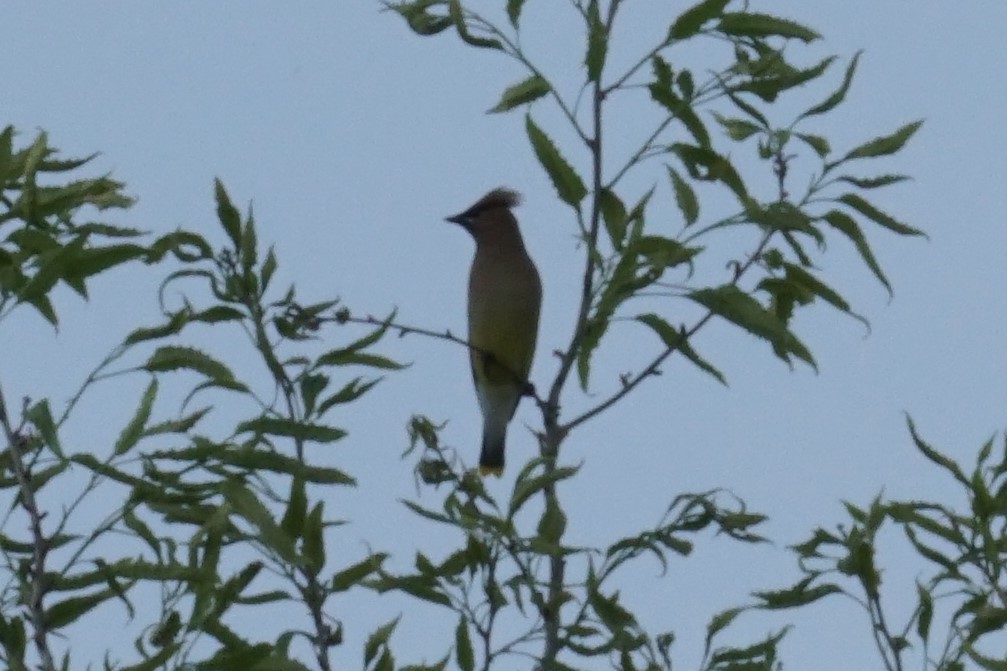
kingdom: Animalia
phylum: Chordata
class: Aves
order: Passeriformes
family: Bombycillidae
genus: Bombycilla
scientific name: Bombycilla cedrorum
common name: Cedar waxwing
